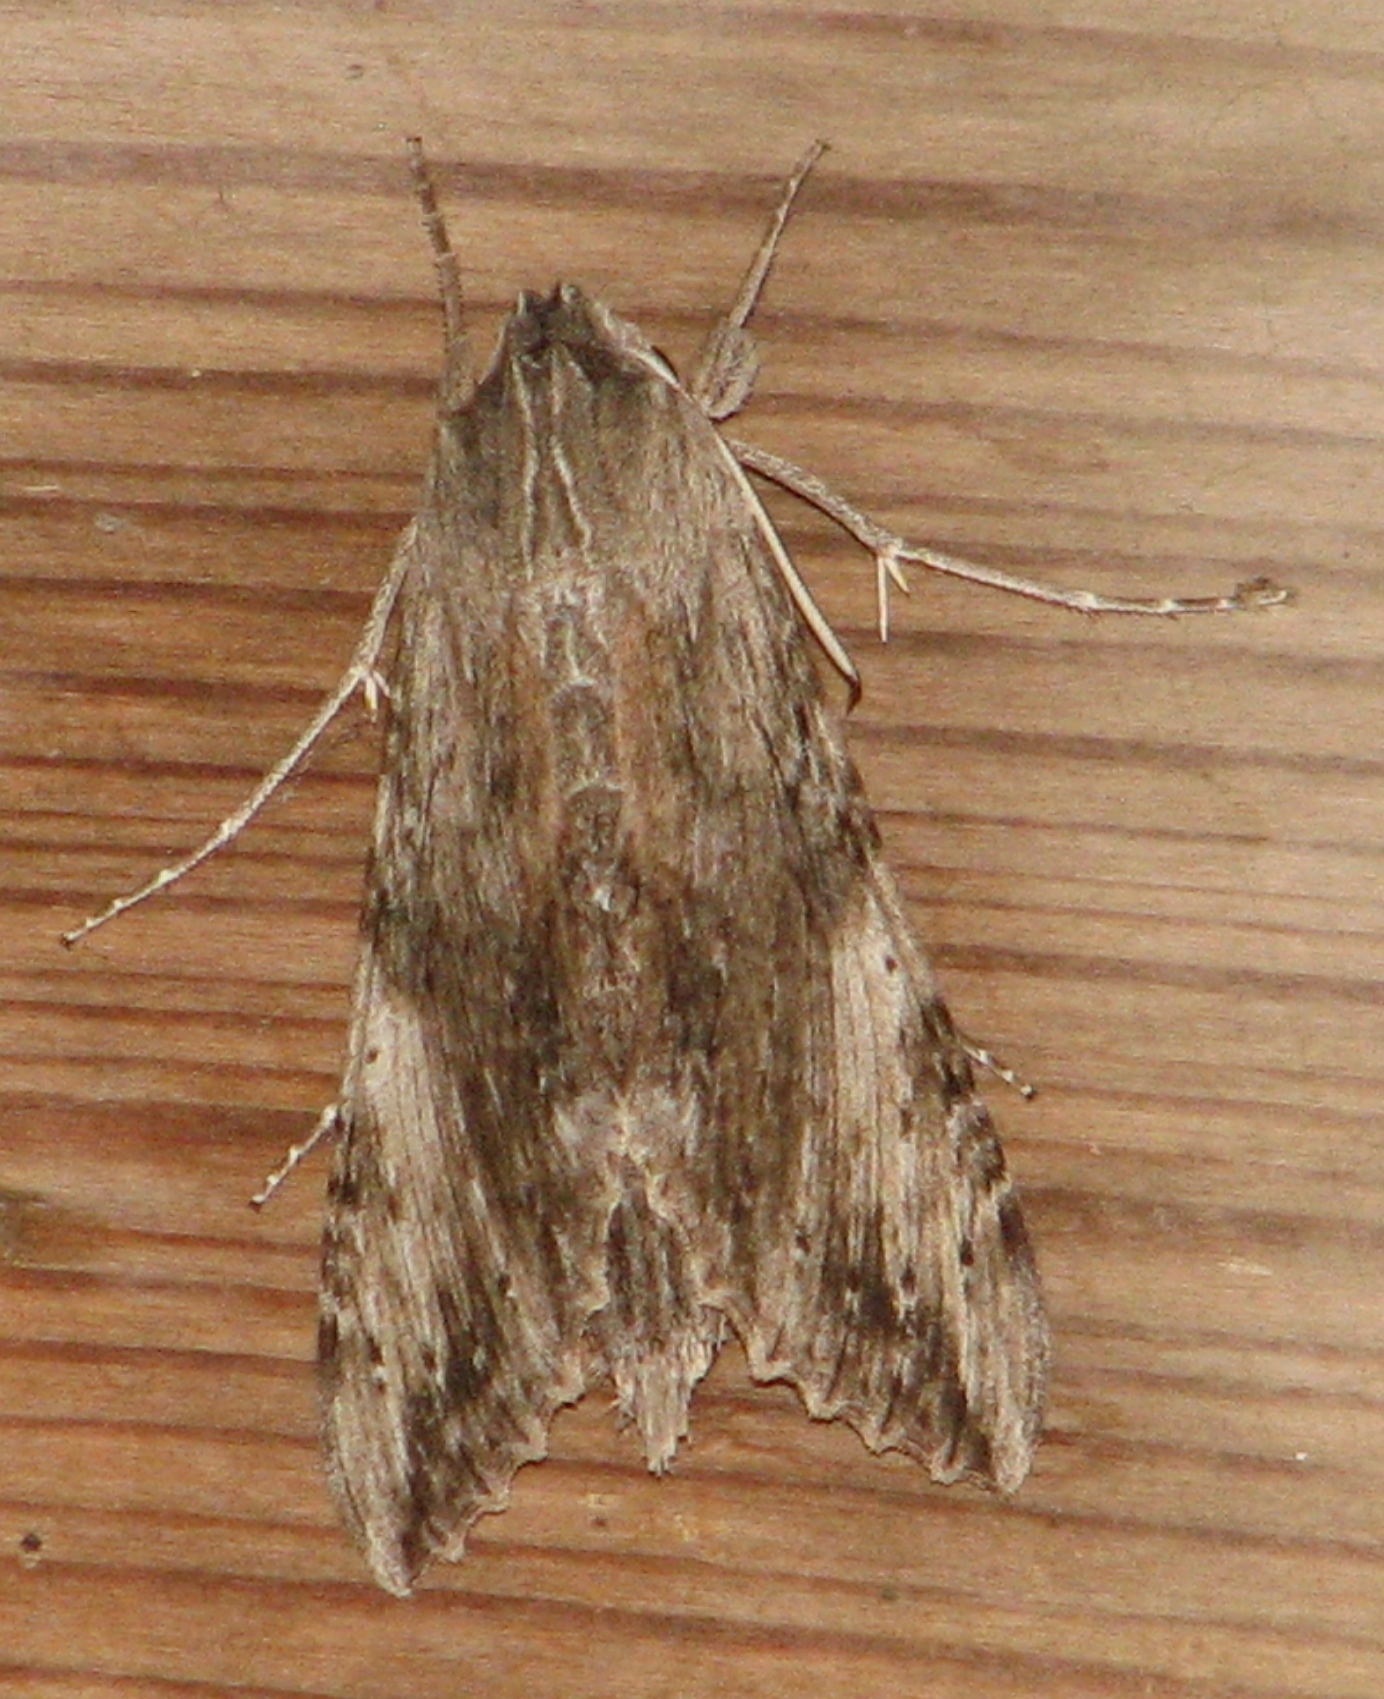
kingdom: Animalia
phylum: Arthropoda
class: Insecta
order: Lepidoptera
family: Sphingidae
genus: Erinnyis
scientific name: Erinnyis obscura
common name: Obscure sphinx
